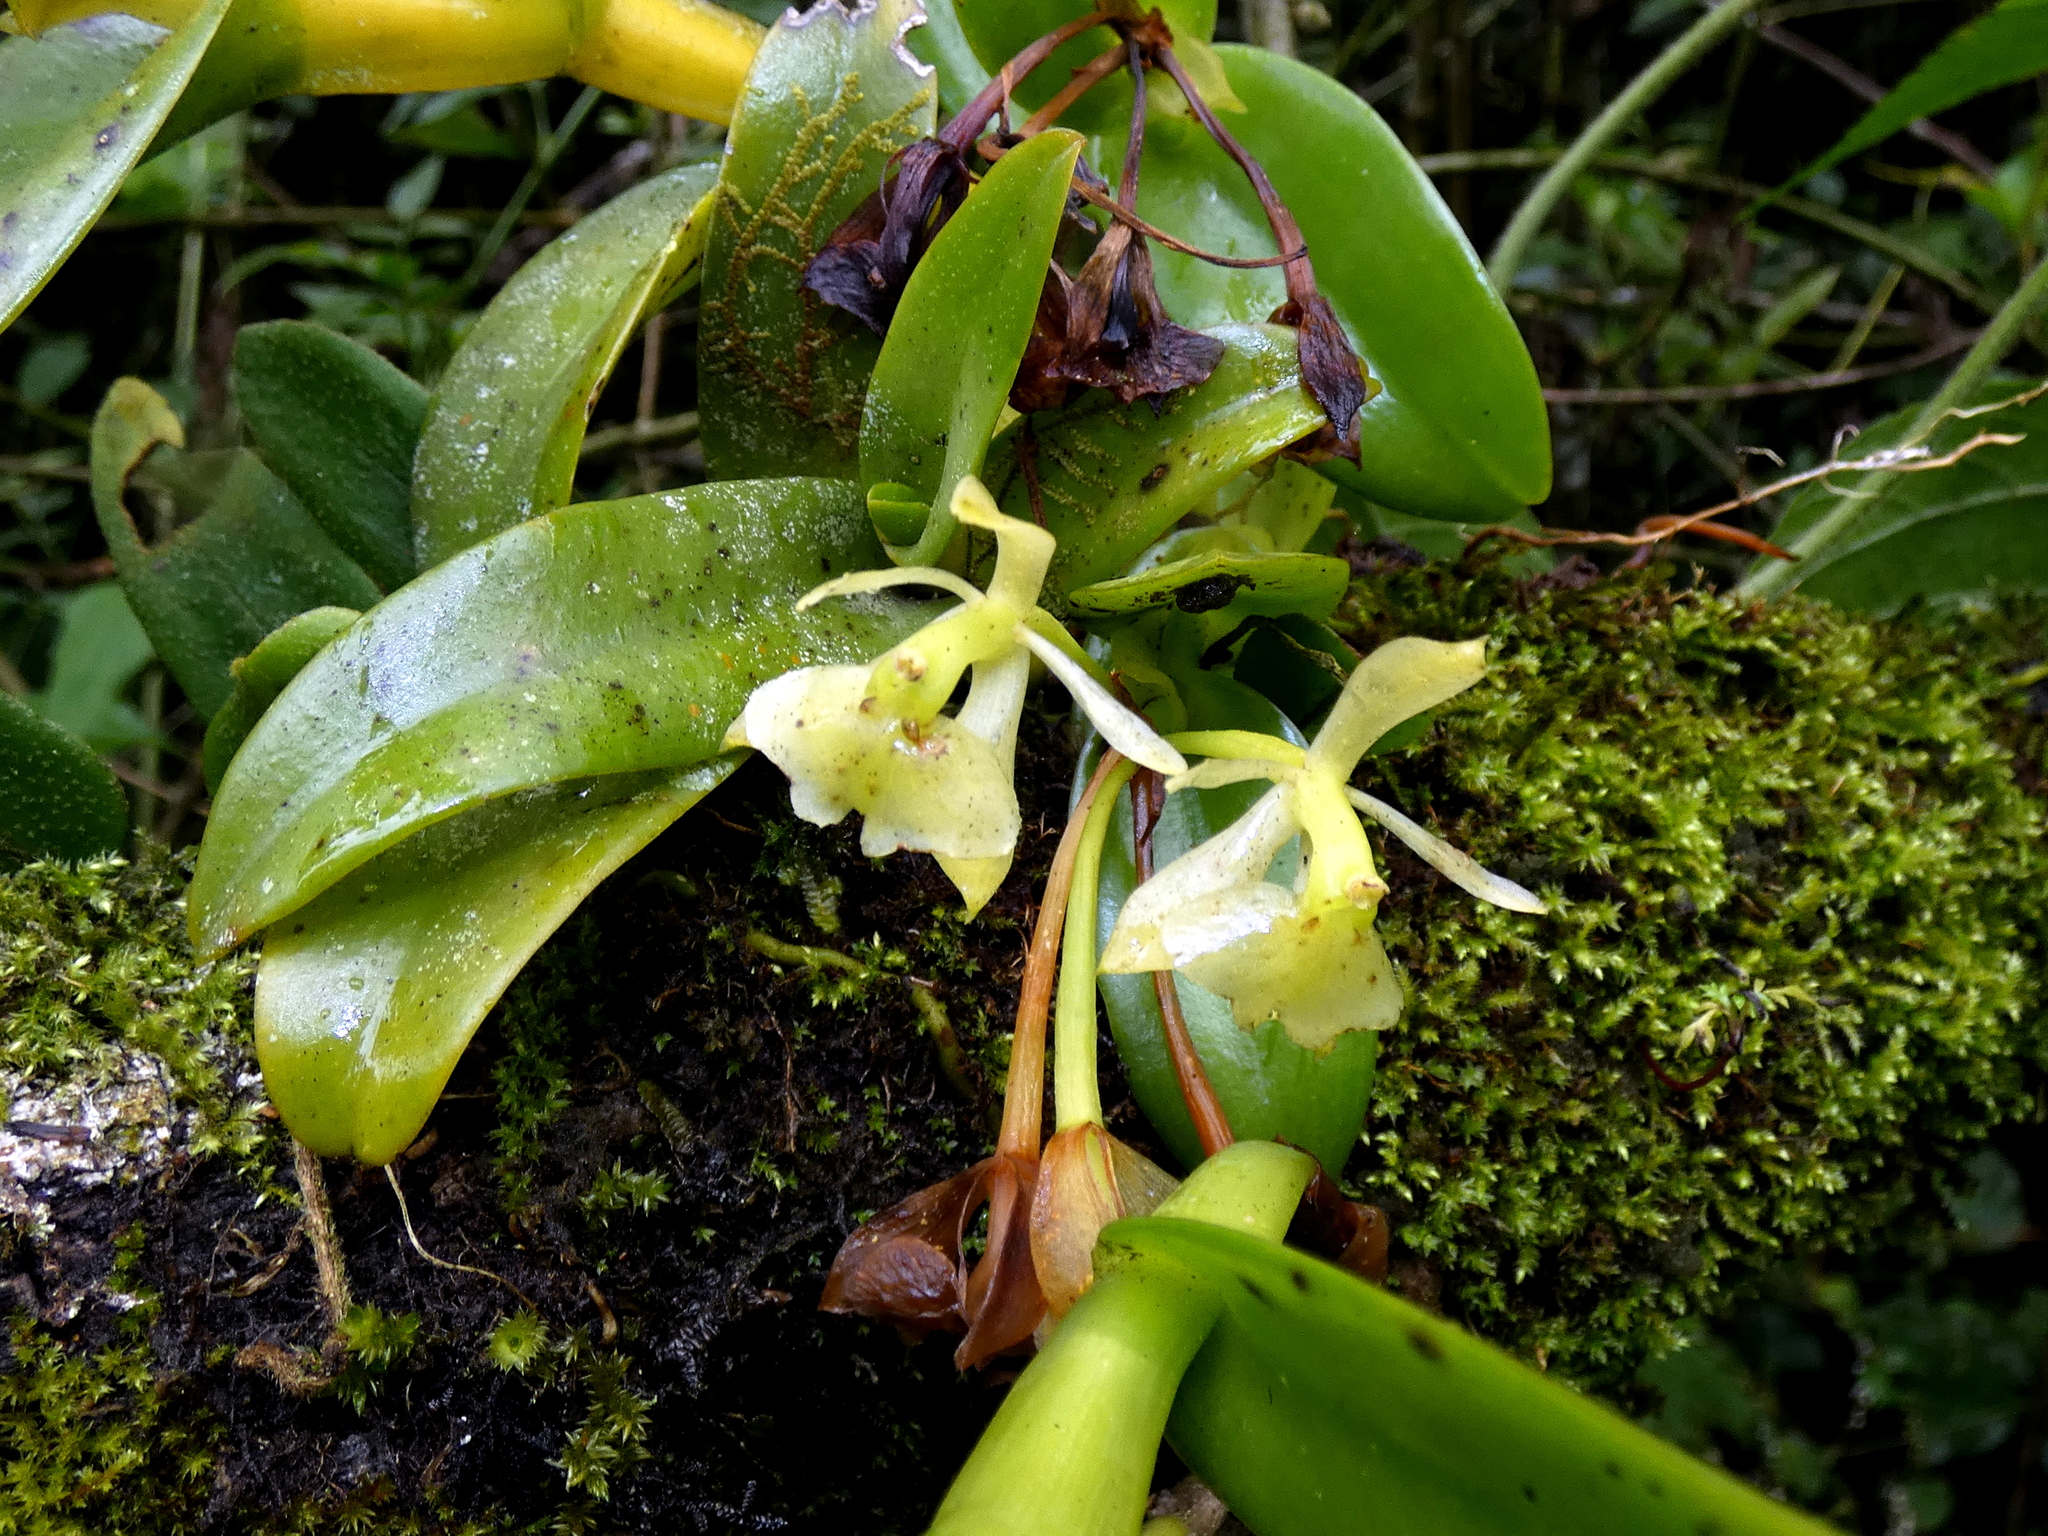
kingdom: Plantae
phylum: Tracheophyta
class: Liliopsida
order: Asparagales
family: Orchidaceae
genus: Epidendrum
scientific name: Epidendrum barbeyanum
